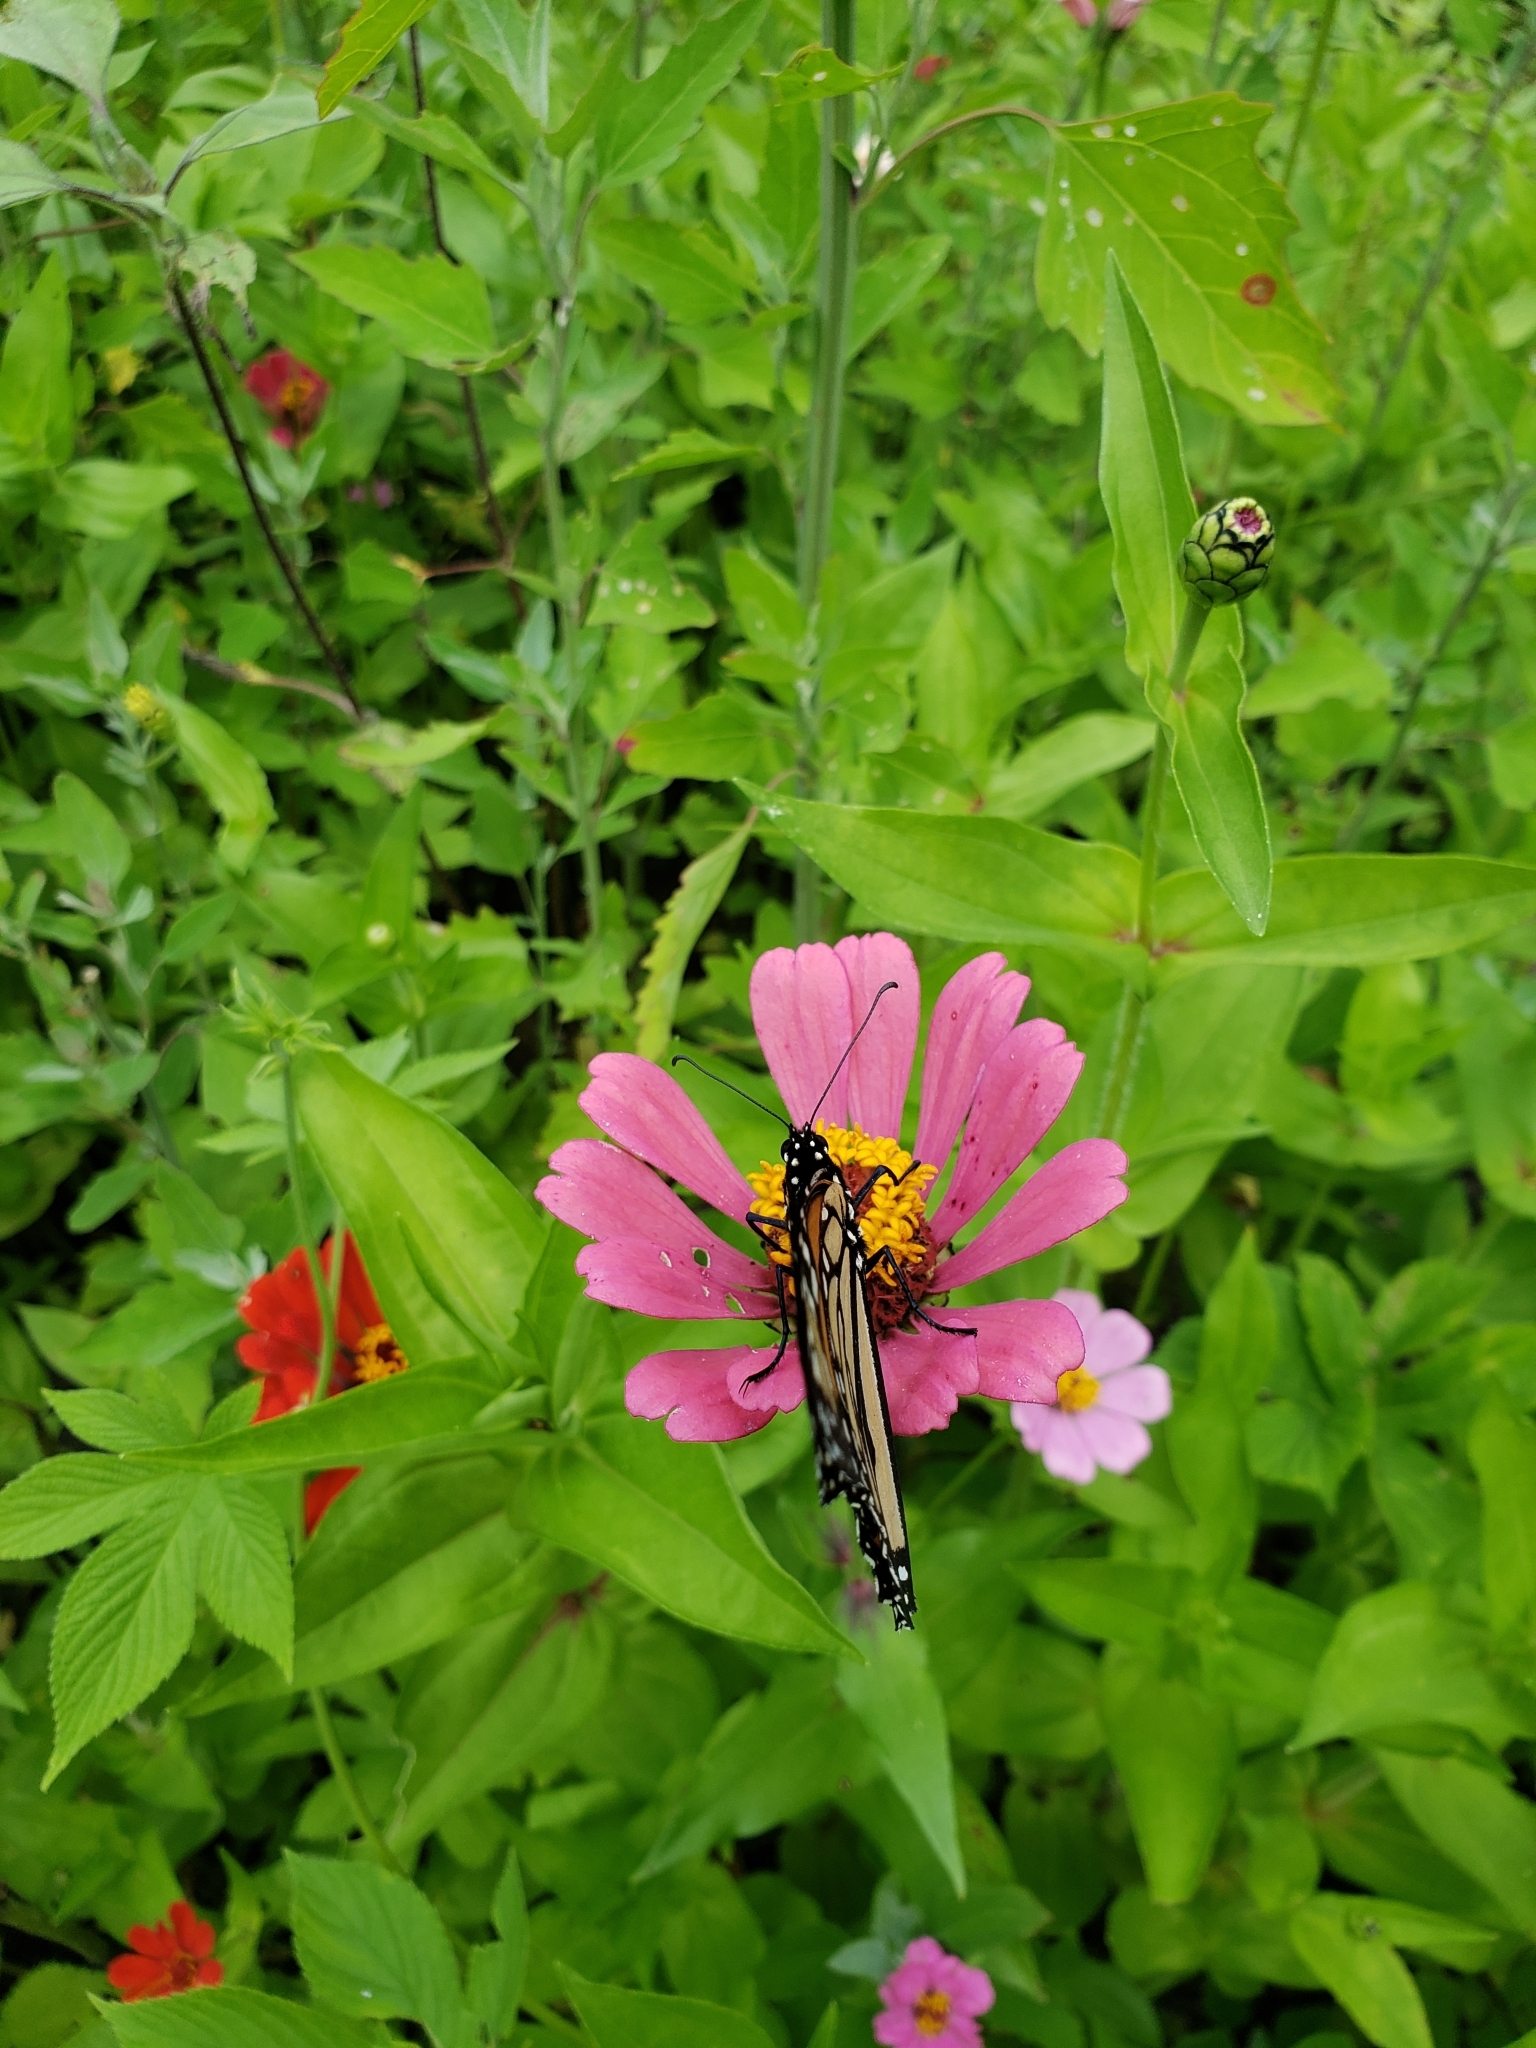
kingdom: Animalia
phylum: Arthropoda
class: Insecta
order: Lepidoptera
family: Nymphalidae
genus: Danaus
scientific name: Danaus plexippus
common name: Monarch
